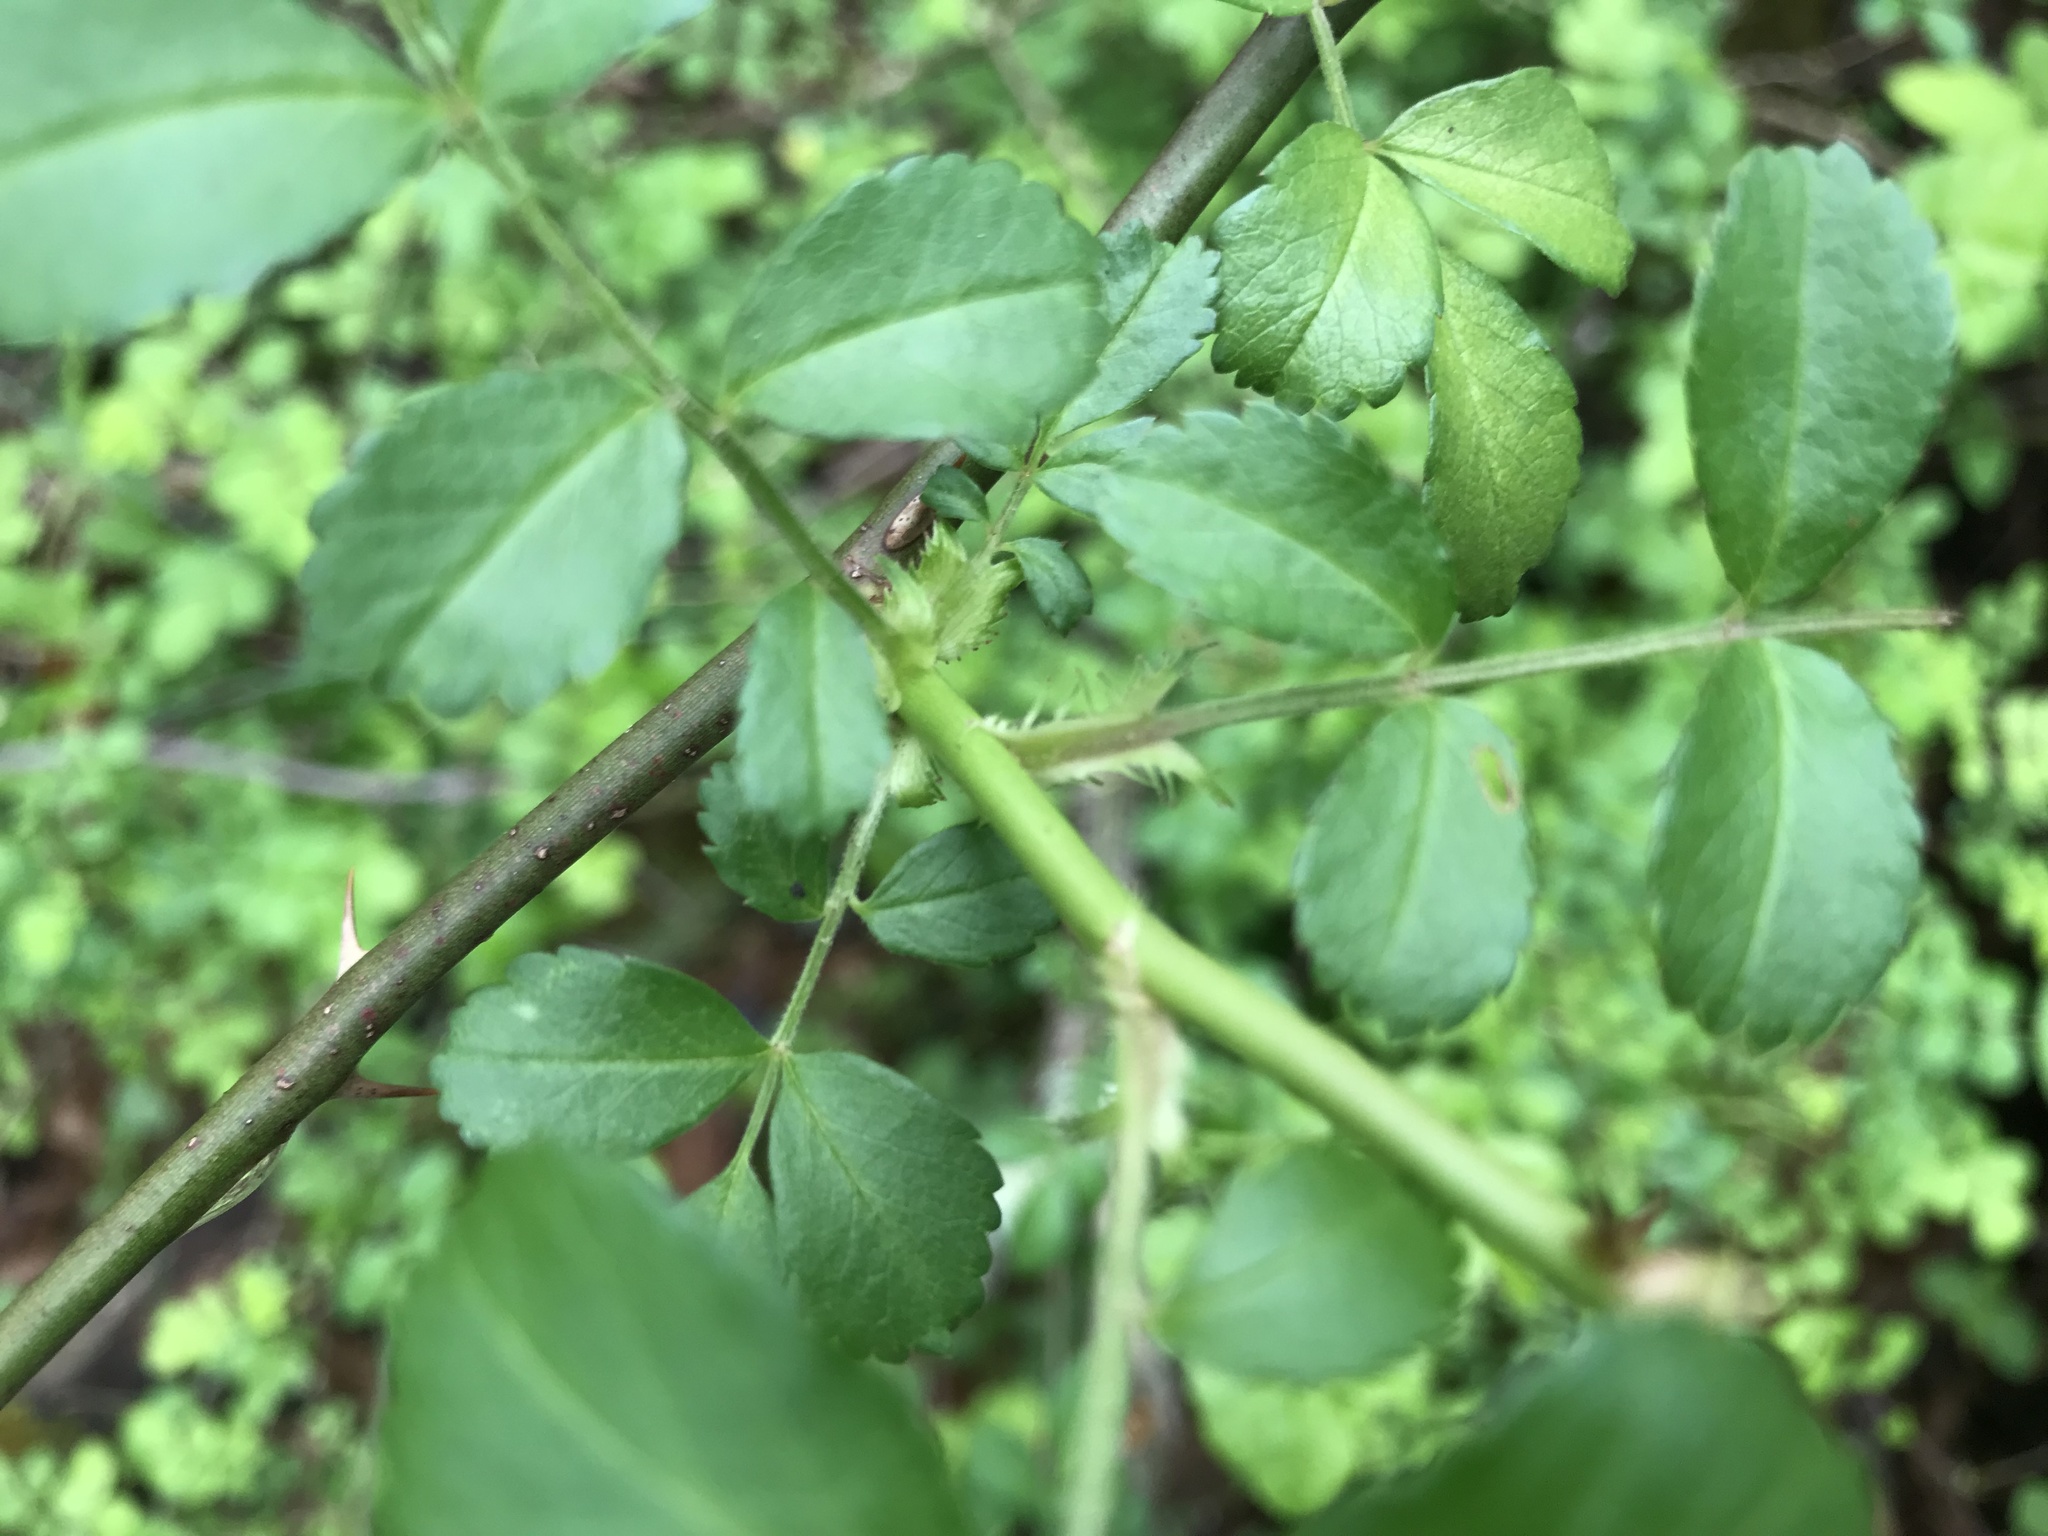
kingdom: Plantae
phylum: Tracheophyta
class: Magnoliopsida
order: Rosales
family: Rosaceae
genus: Rosa
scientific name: Rosa multiflora
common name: Multiflora rose
